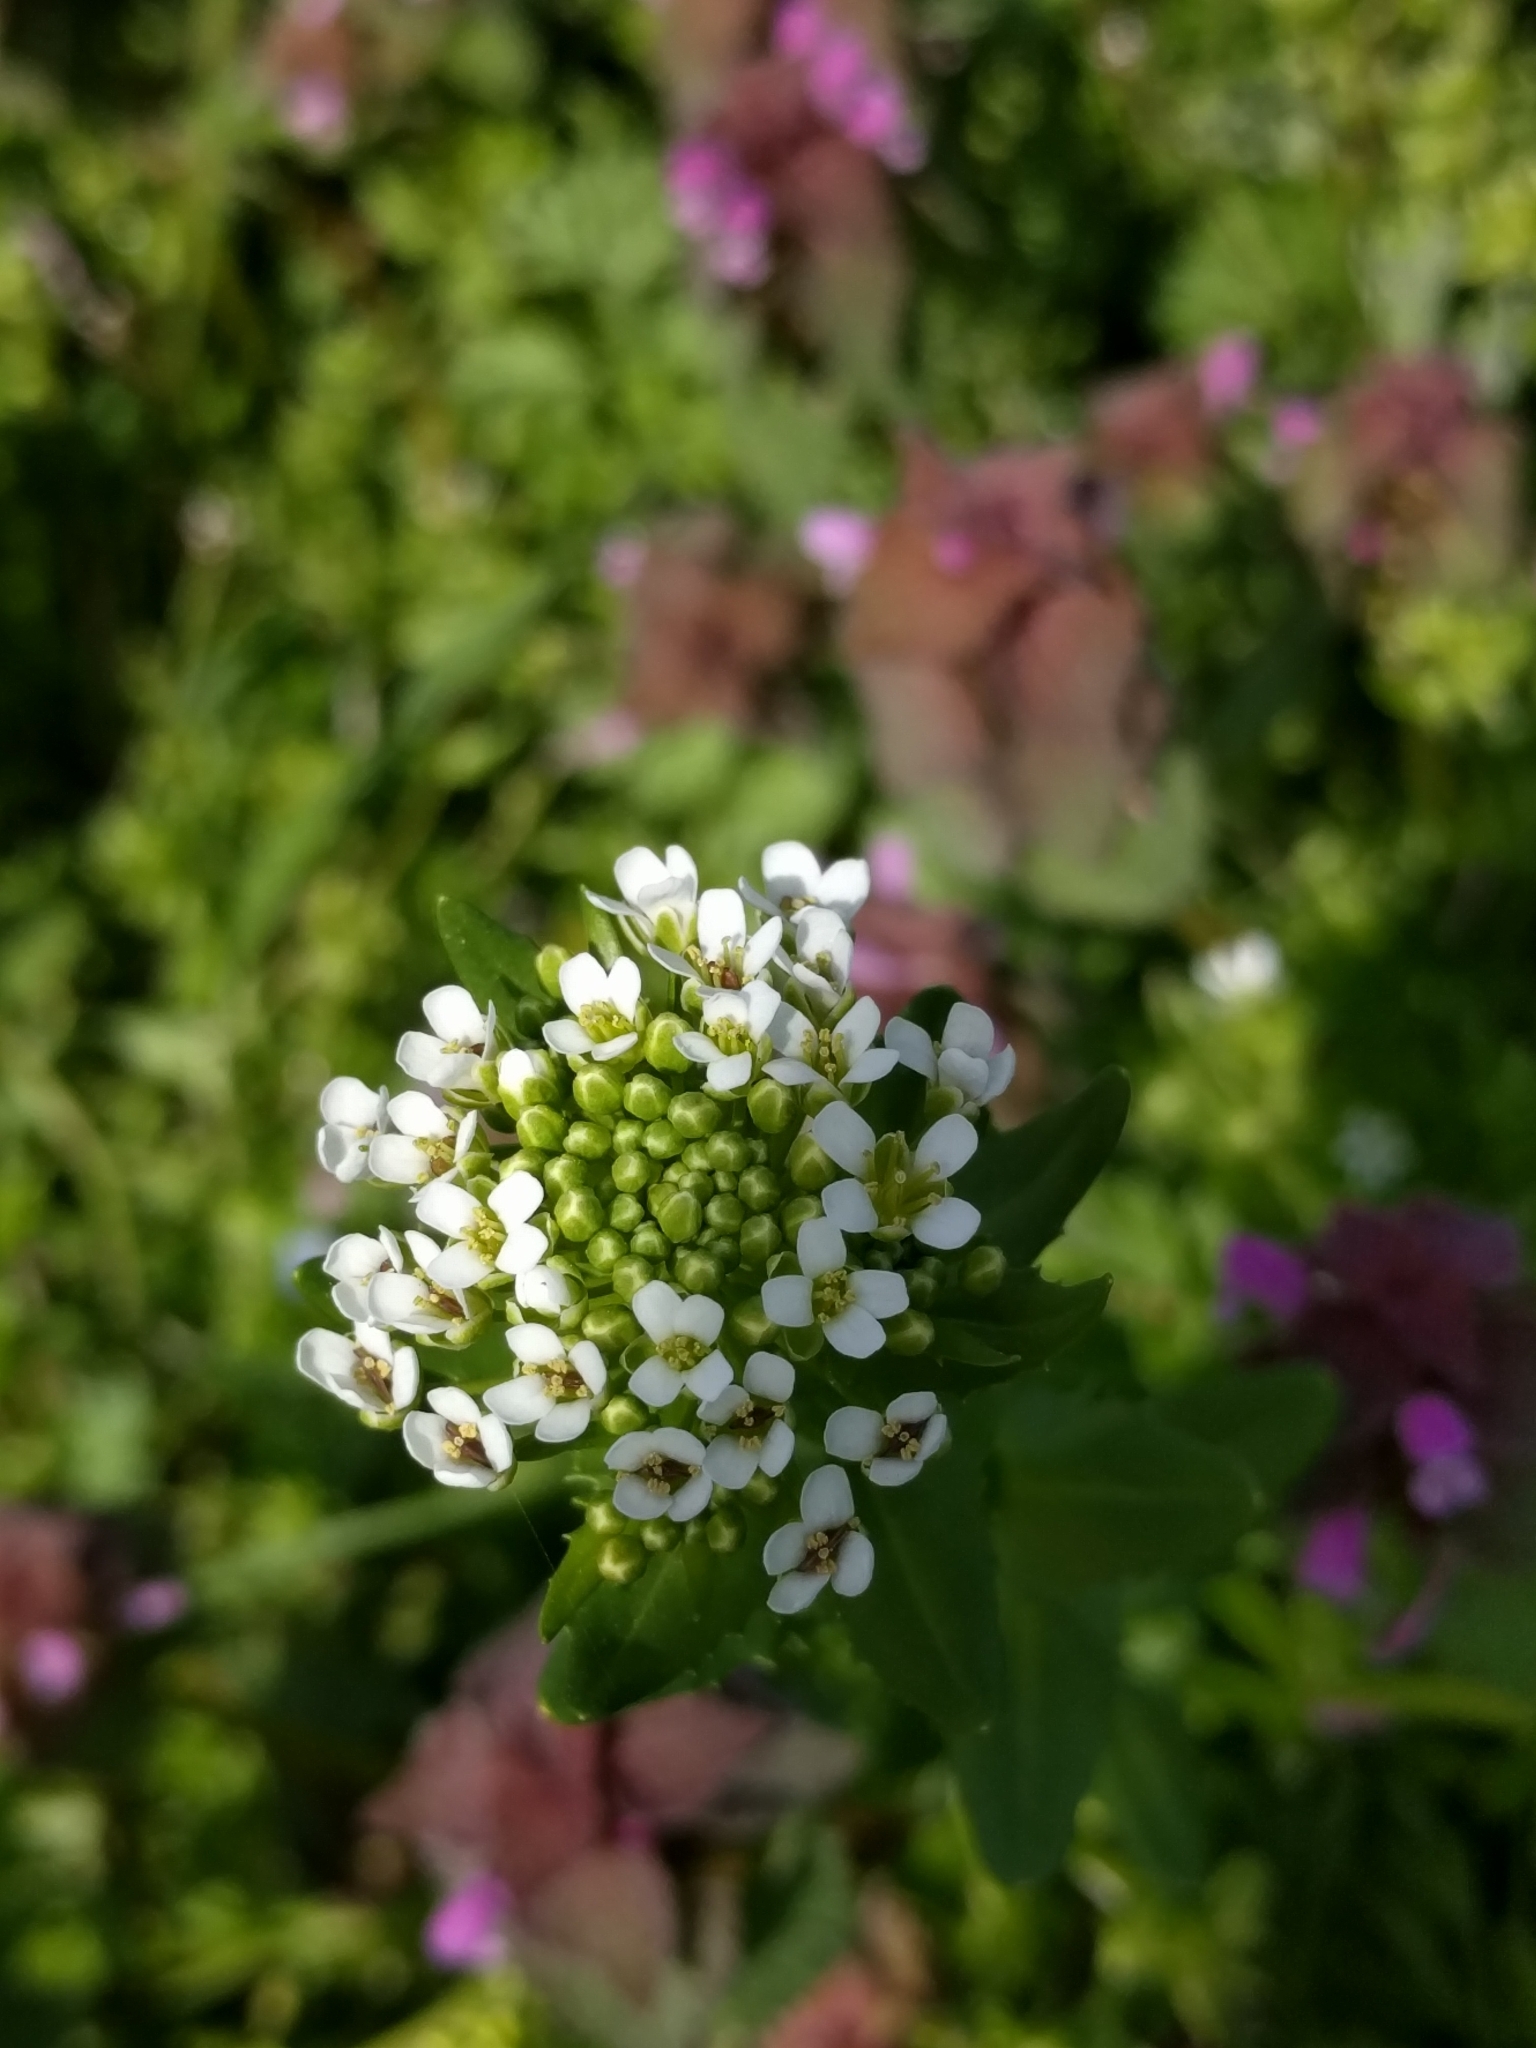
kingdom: Plantae
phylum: Tracheophyta
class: Magnoliopsida
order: Brassicales
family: Brassicaceae
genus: Thlaspi
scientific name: Thlaspi arvense
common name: Field pennycress
